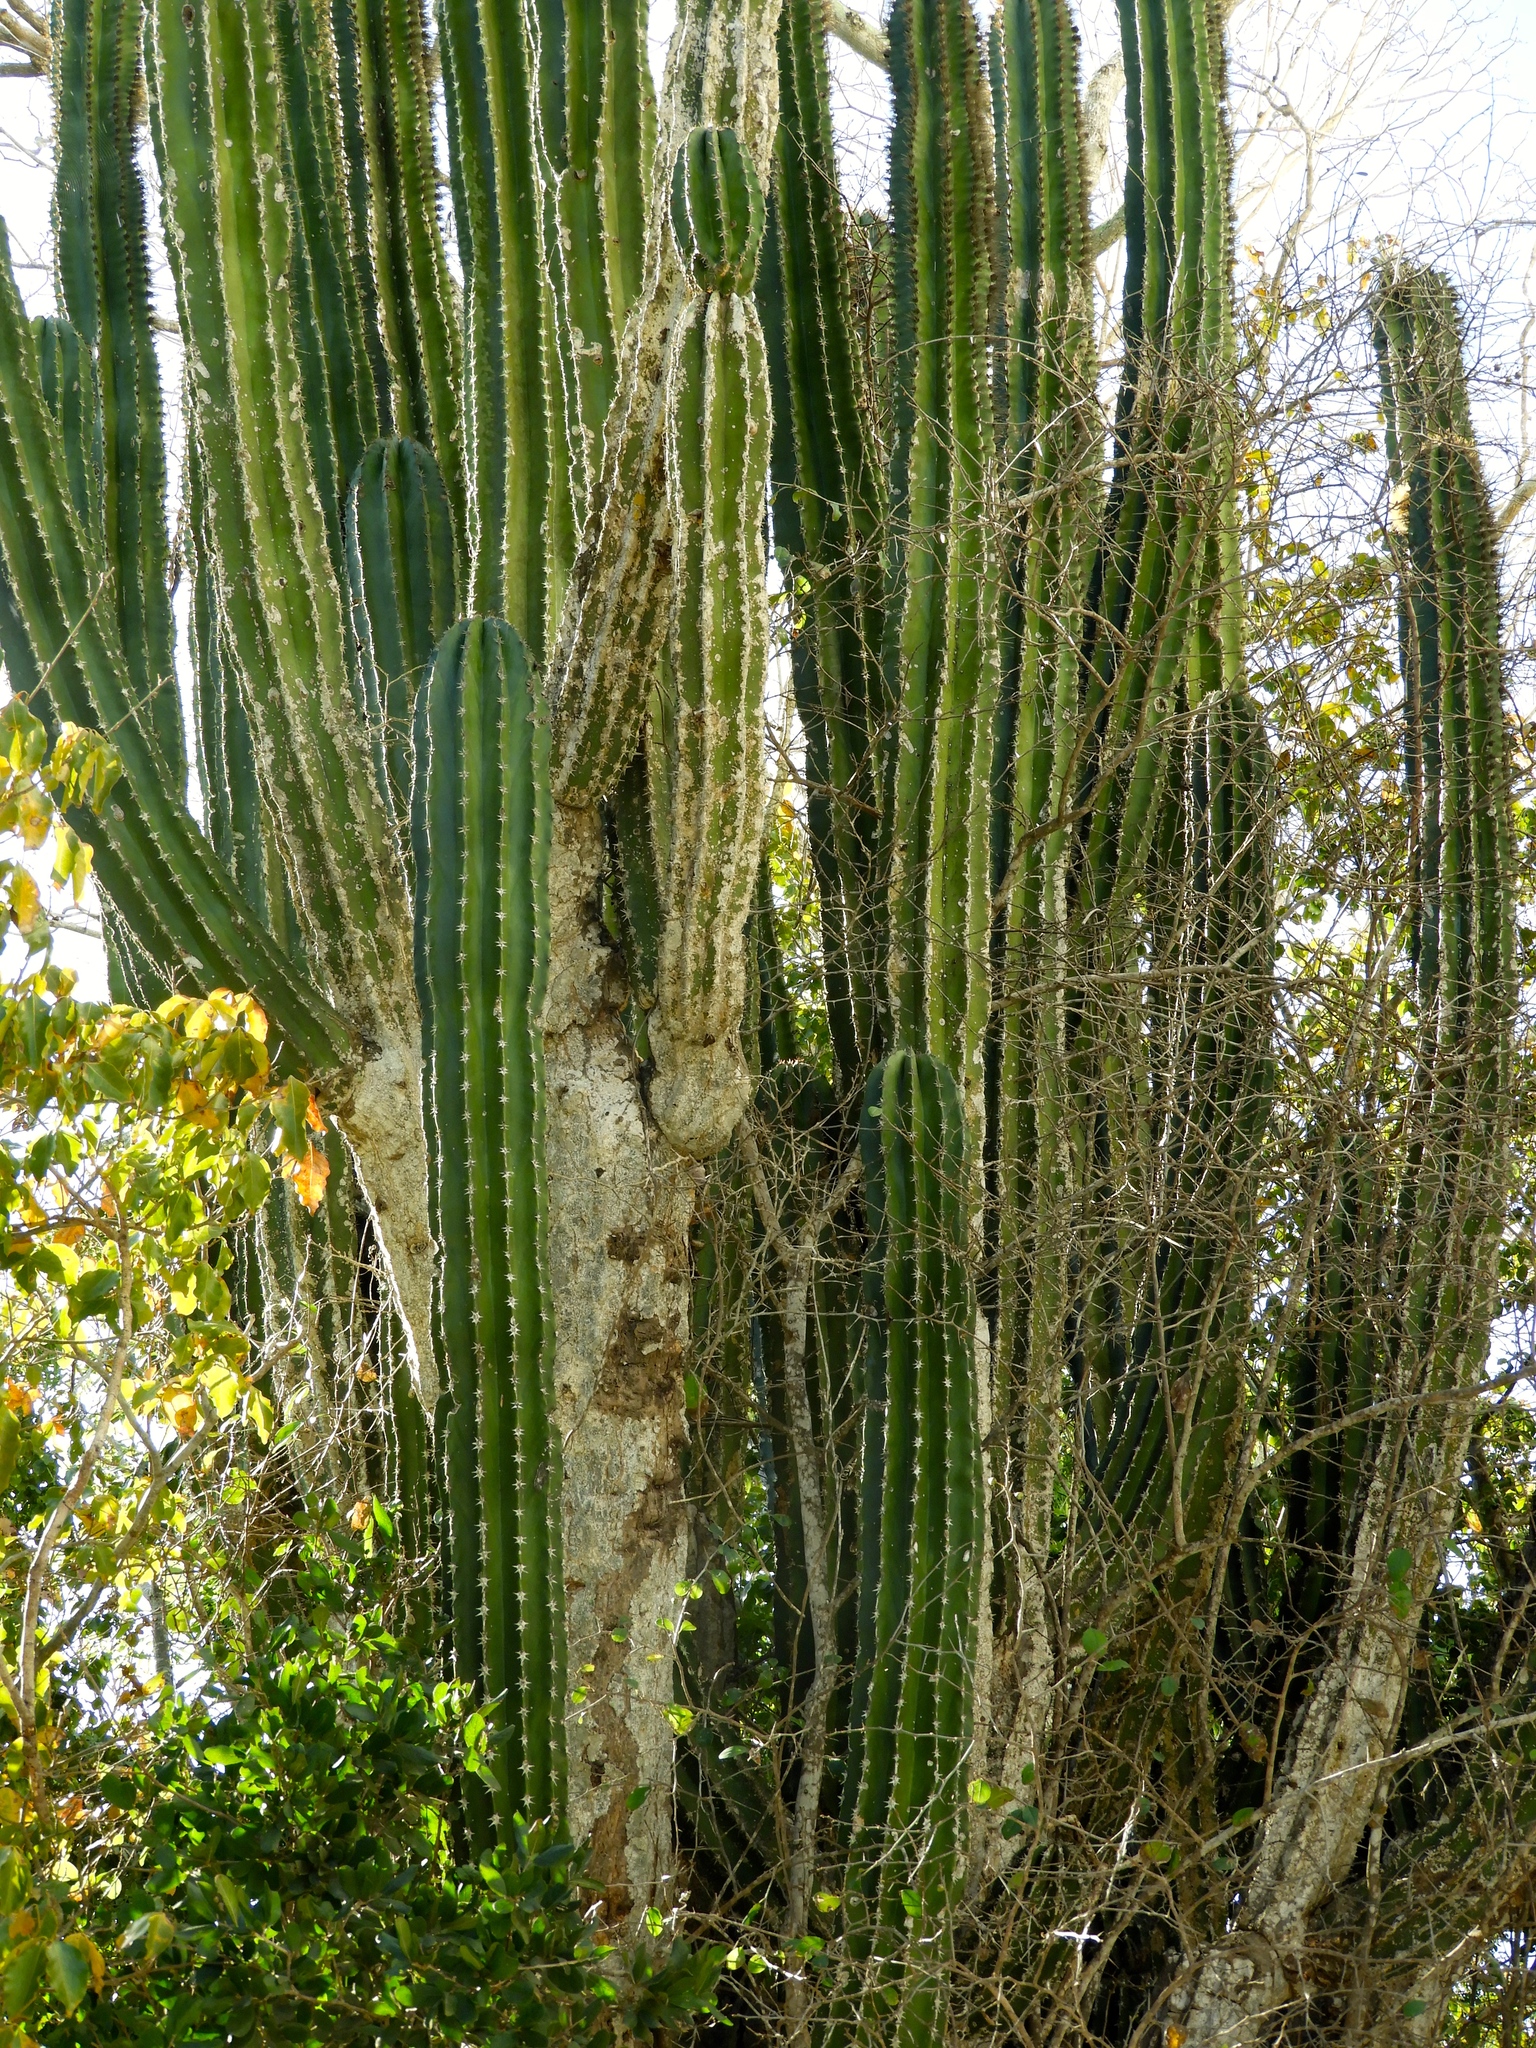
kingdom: Plantae
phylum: Tracheophyta
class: Magnoliopsida
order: Caryophyllales
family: Cactaceae
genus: Pachycereus
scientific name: Pachycereus pecten-aboriginum
